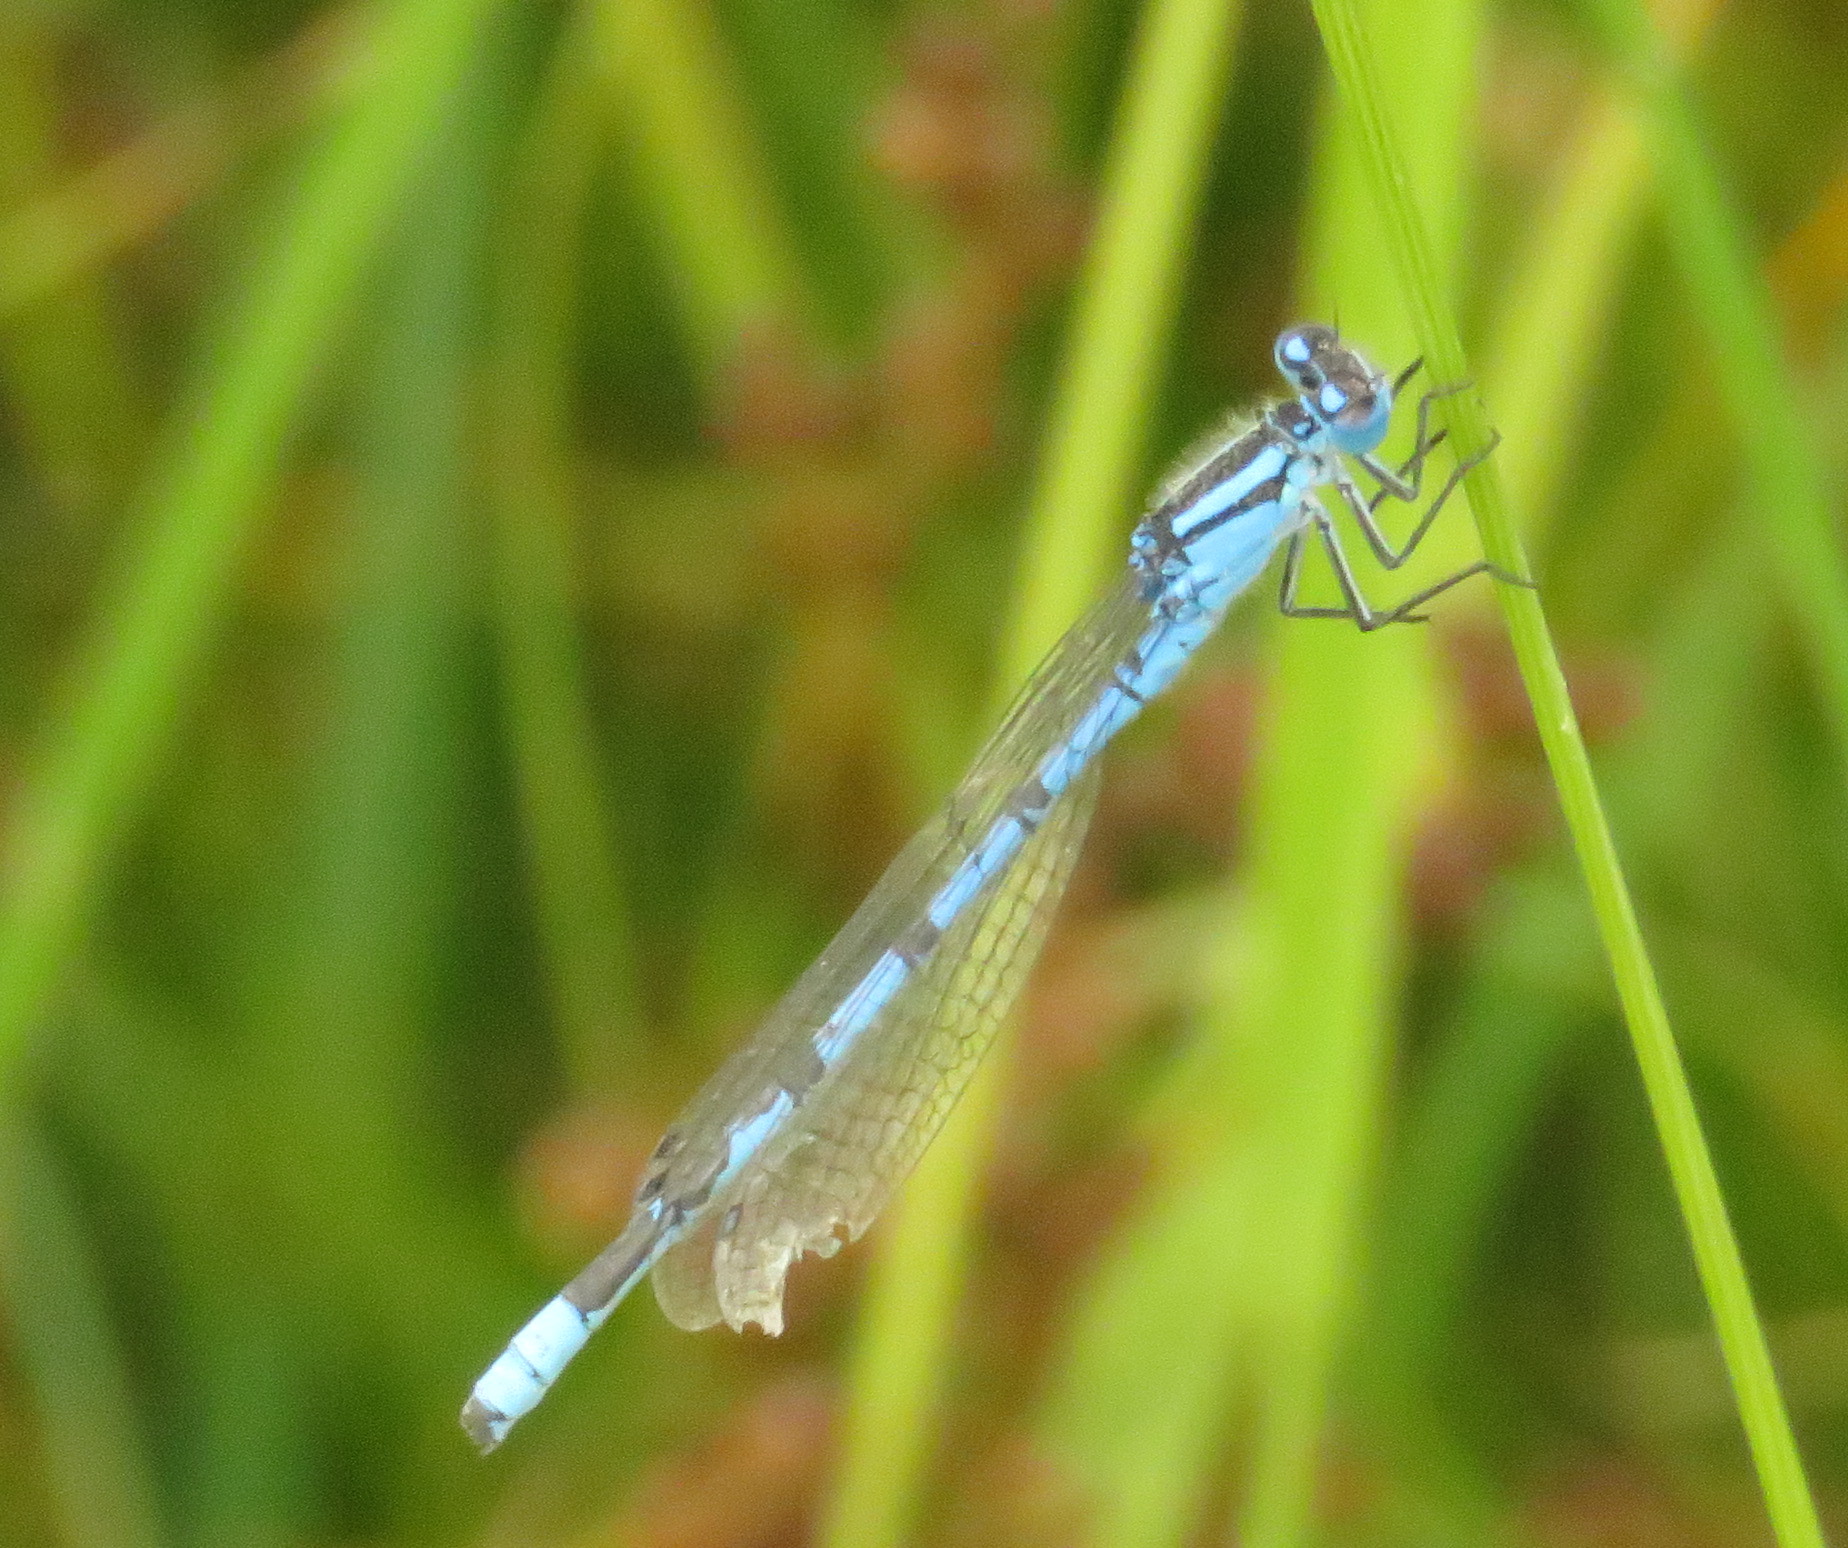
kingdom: Animalia
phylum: Arthropoda
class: Insecta
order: Odonata
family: Coenagrionidae
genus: Enallagma
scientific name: Enallagma cyathigerum
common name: Common blue damselfly
